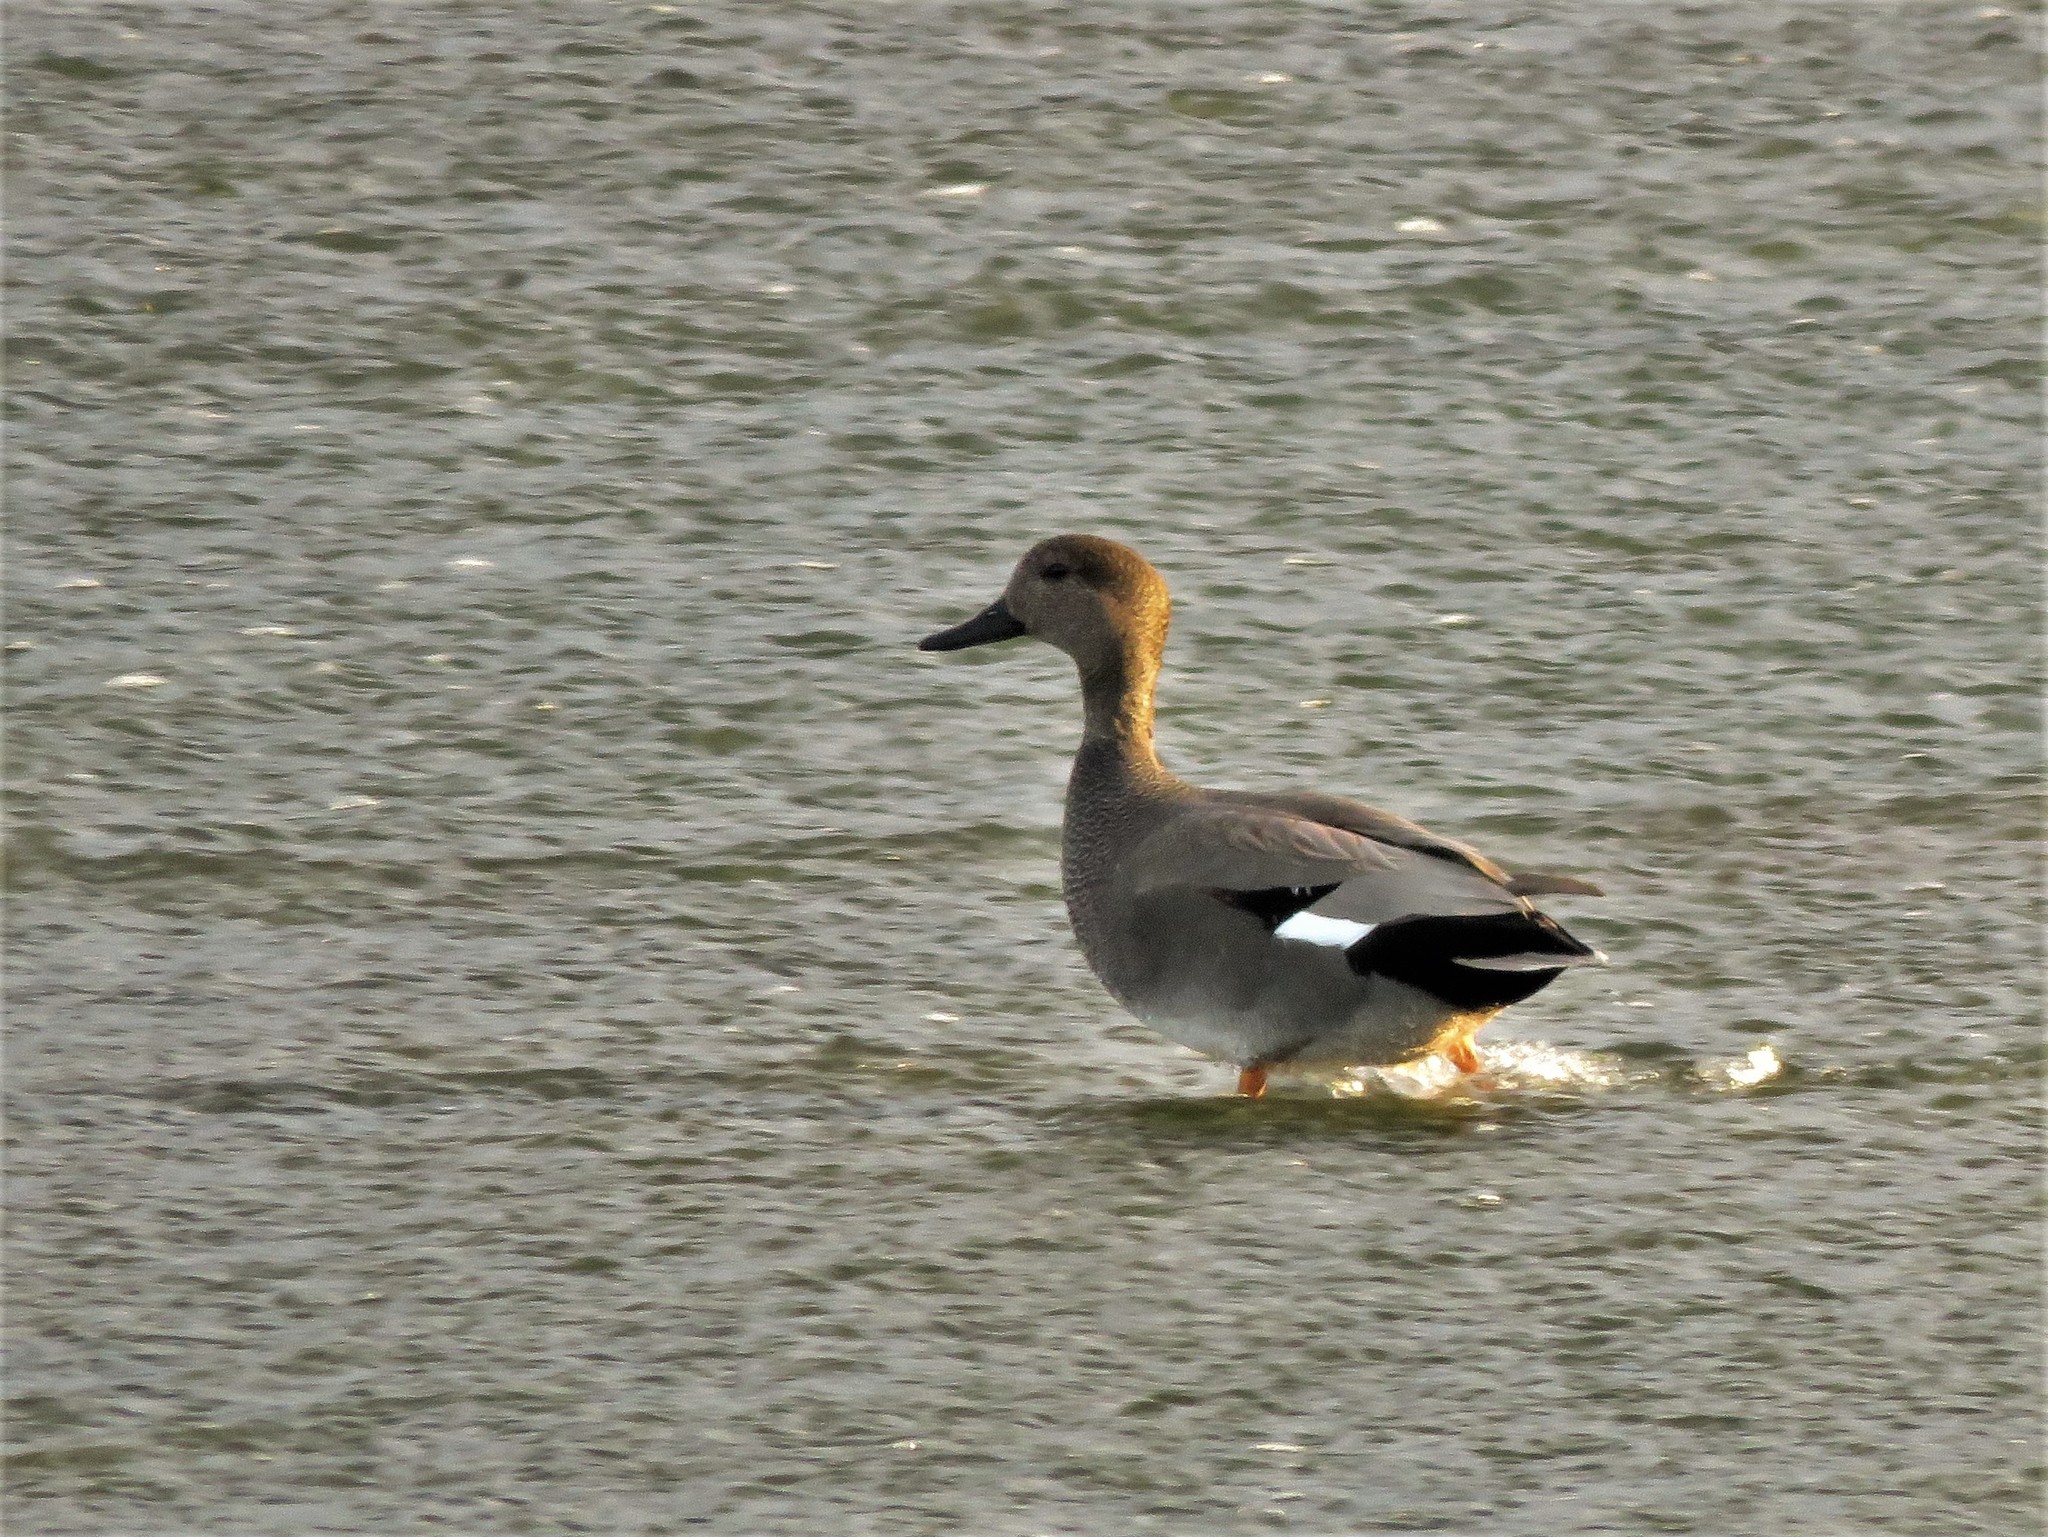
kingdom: Animalia
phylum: Chordata
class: Aves
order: Anseriformes
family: Anatidae
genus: Mareca
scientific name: Mareca strepera
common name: Gadwall
